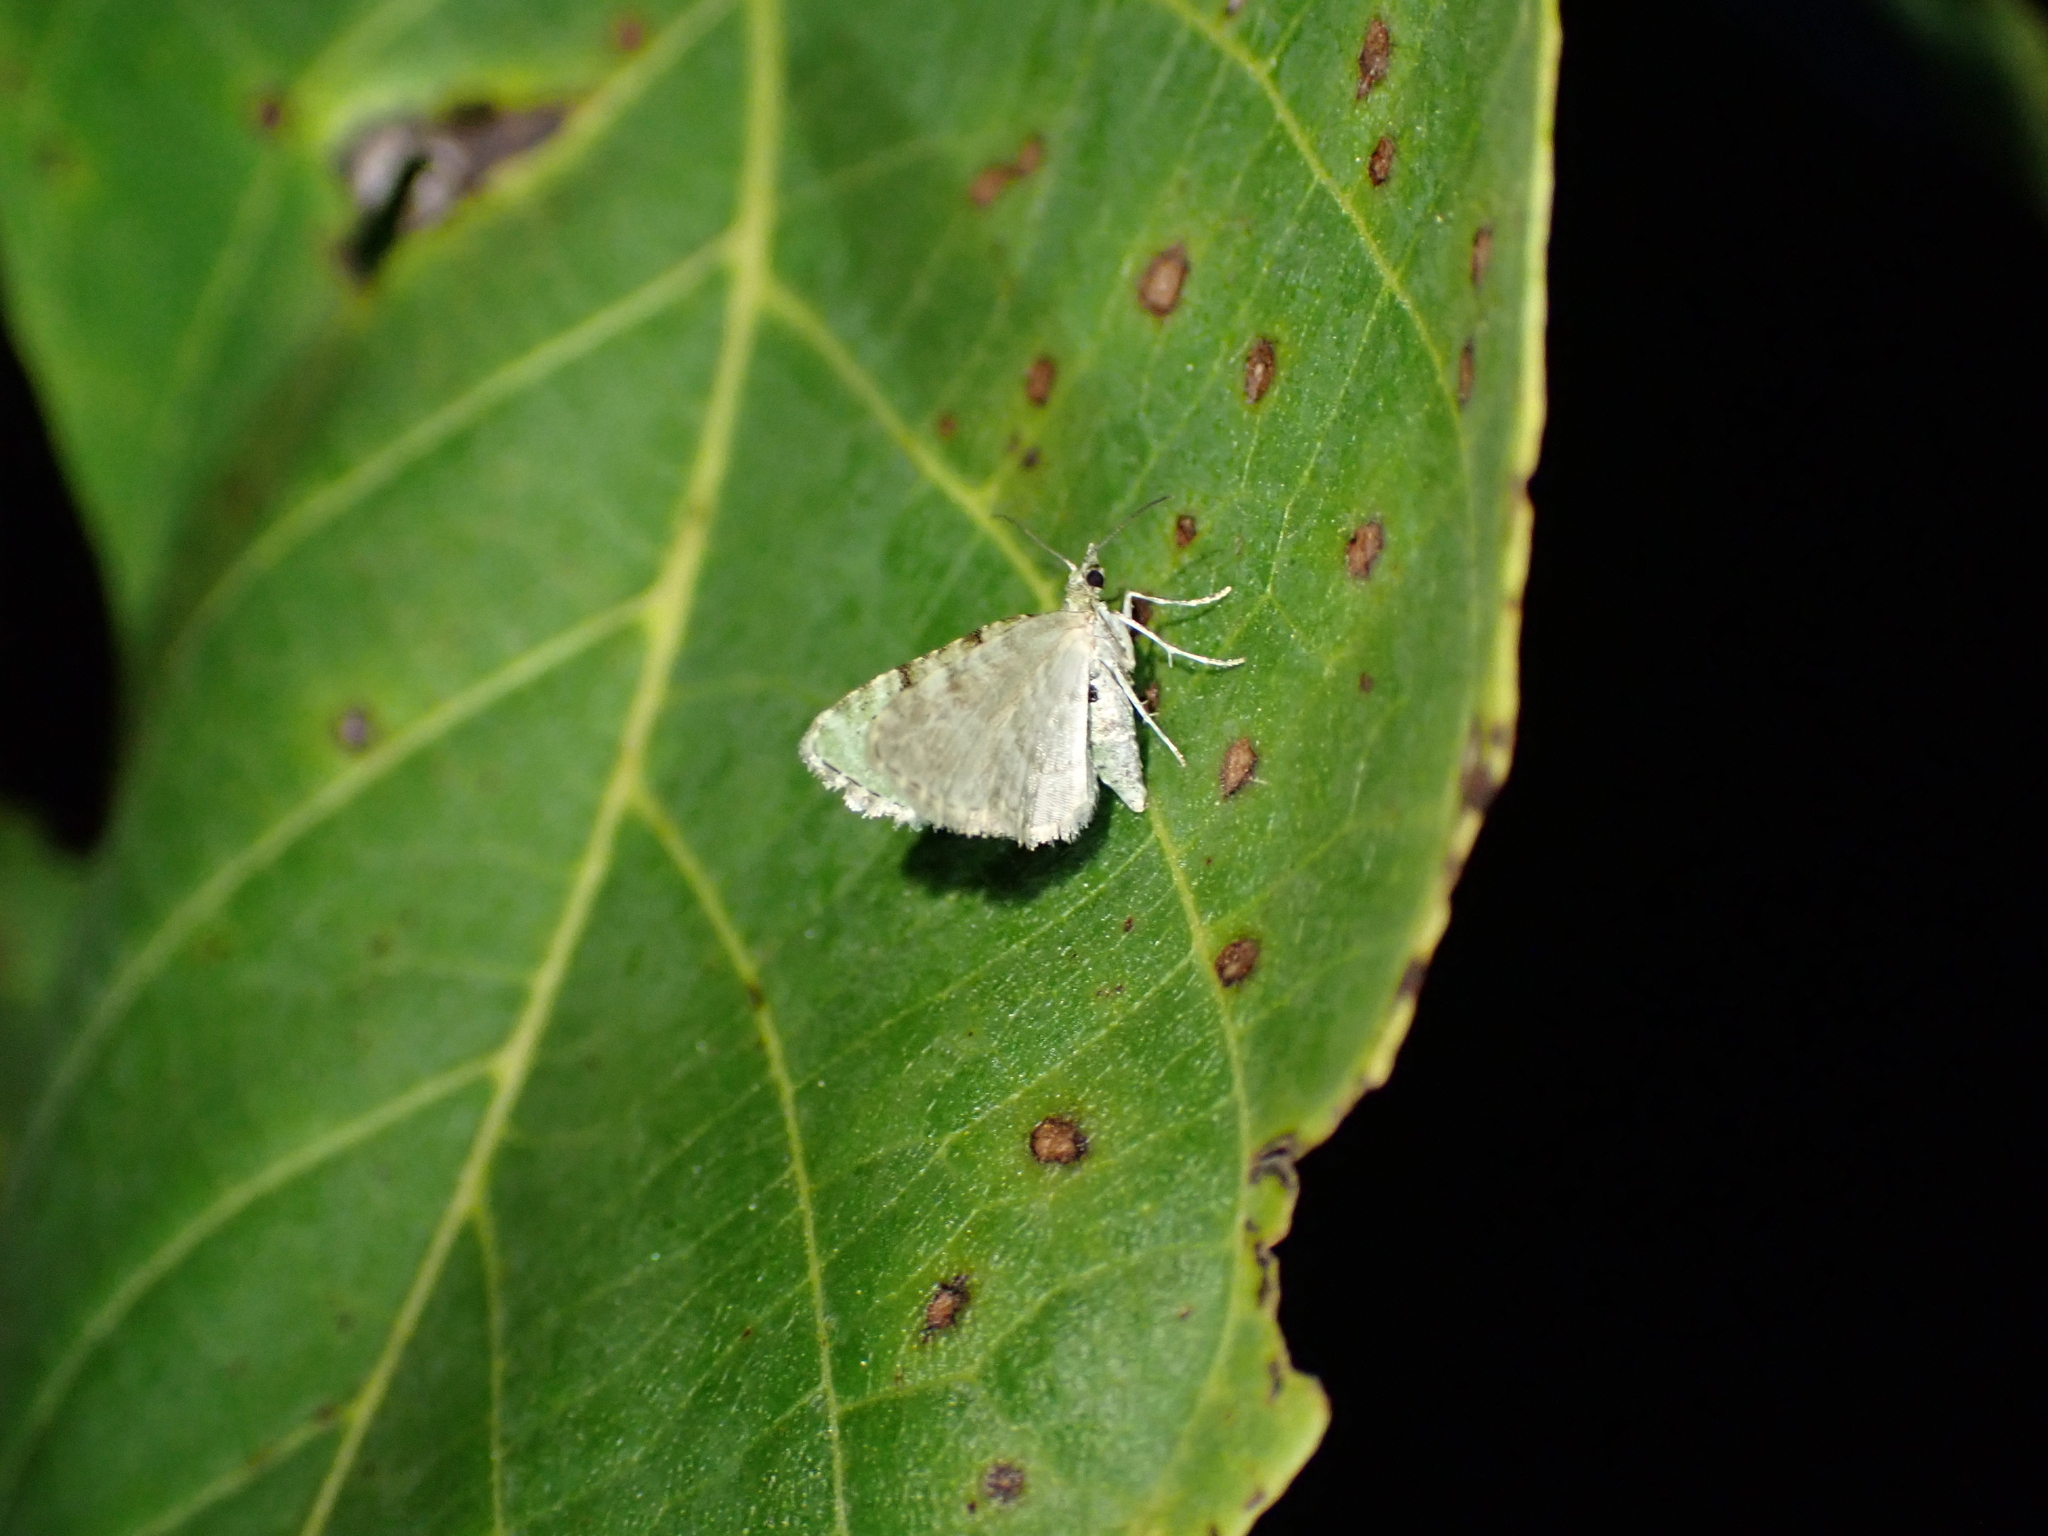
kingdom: Animalia
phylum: Arthropoda
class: Insecta
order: Lepidoptera
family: Geometridae
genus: Colostygia
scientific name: Colostygia pectinataria
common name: Green carpet
